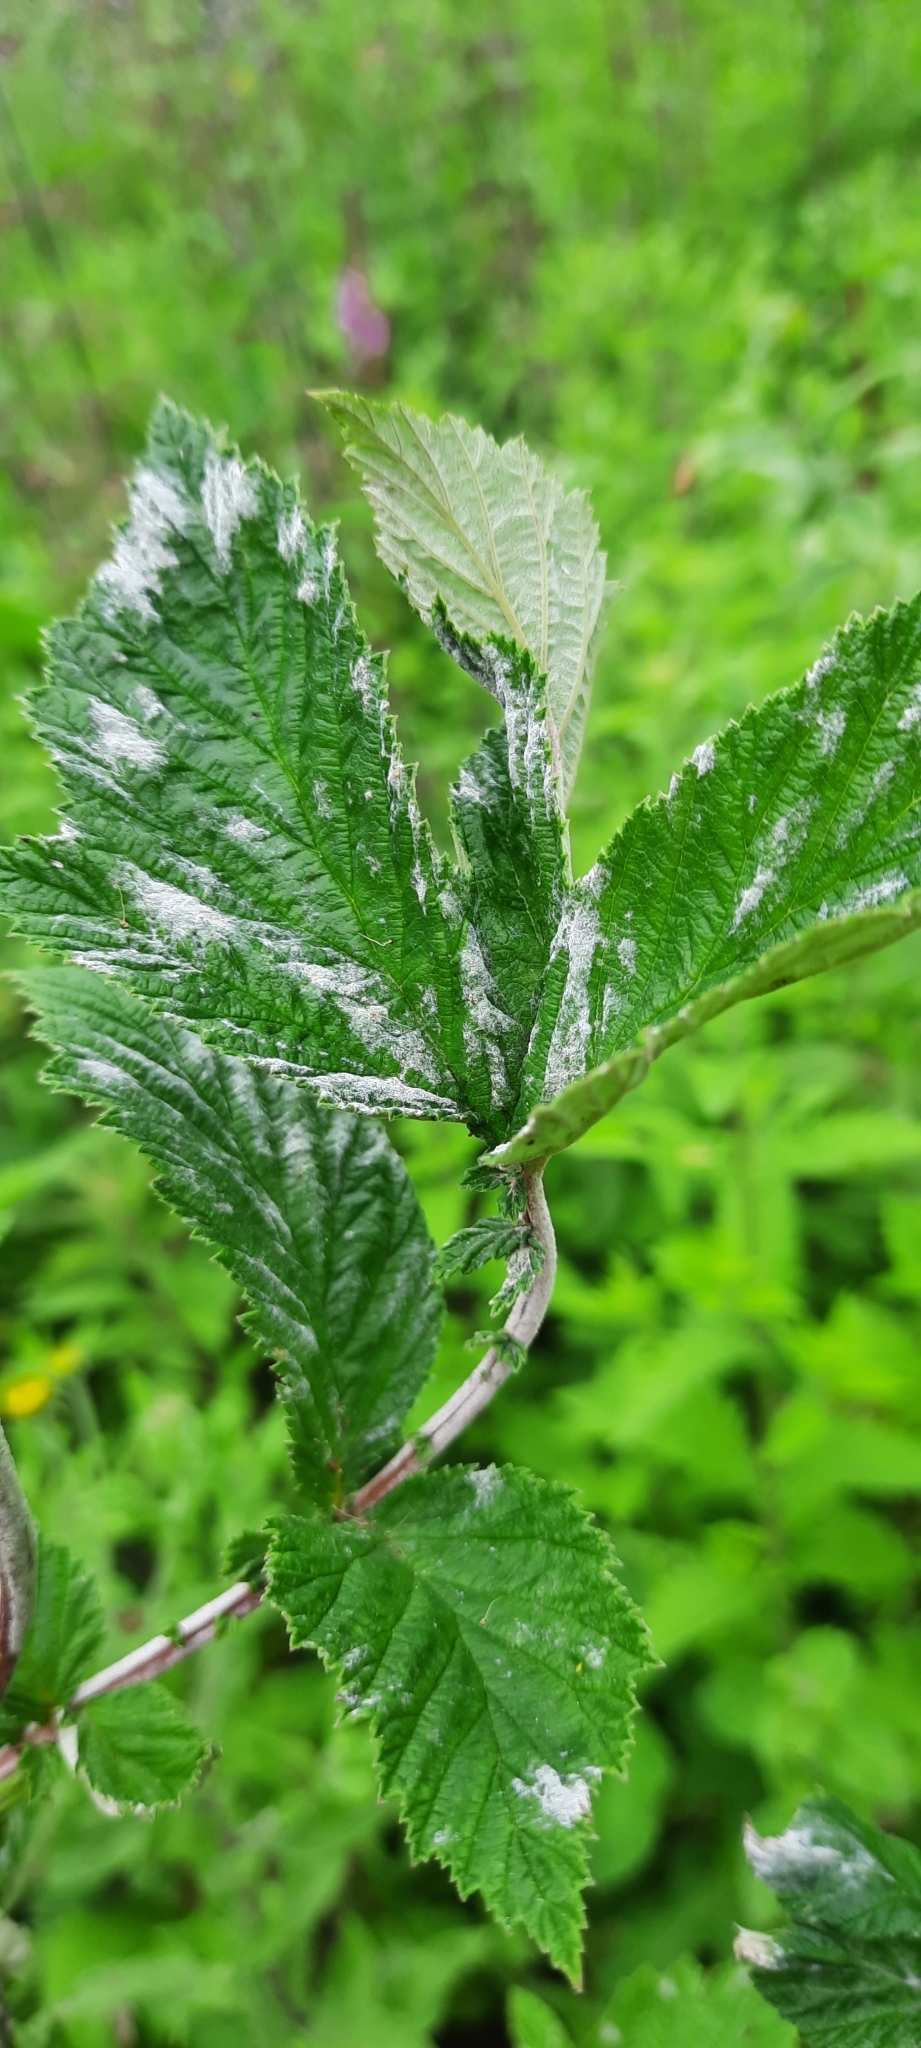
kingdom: Fungi
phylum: Ascomycota
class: Leotiomycetes
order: Helotiales
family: Erysiphaceae
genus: Podosphaera
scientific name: Podosphaera filipendulae
